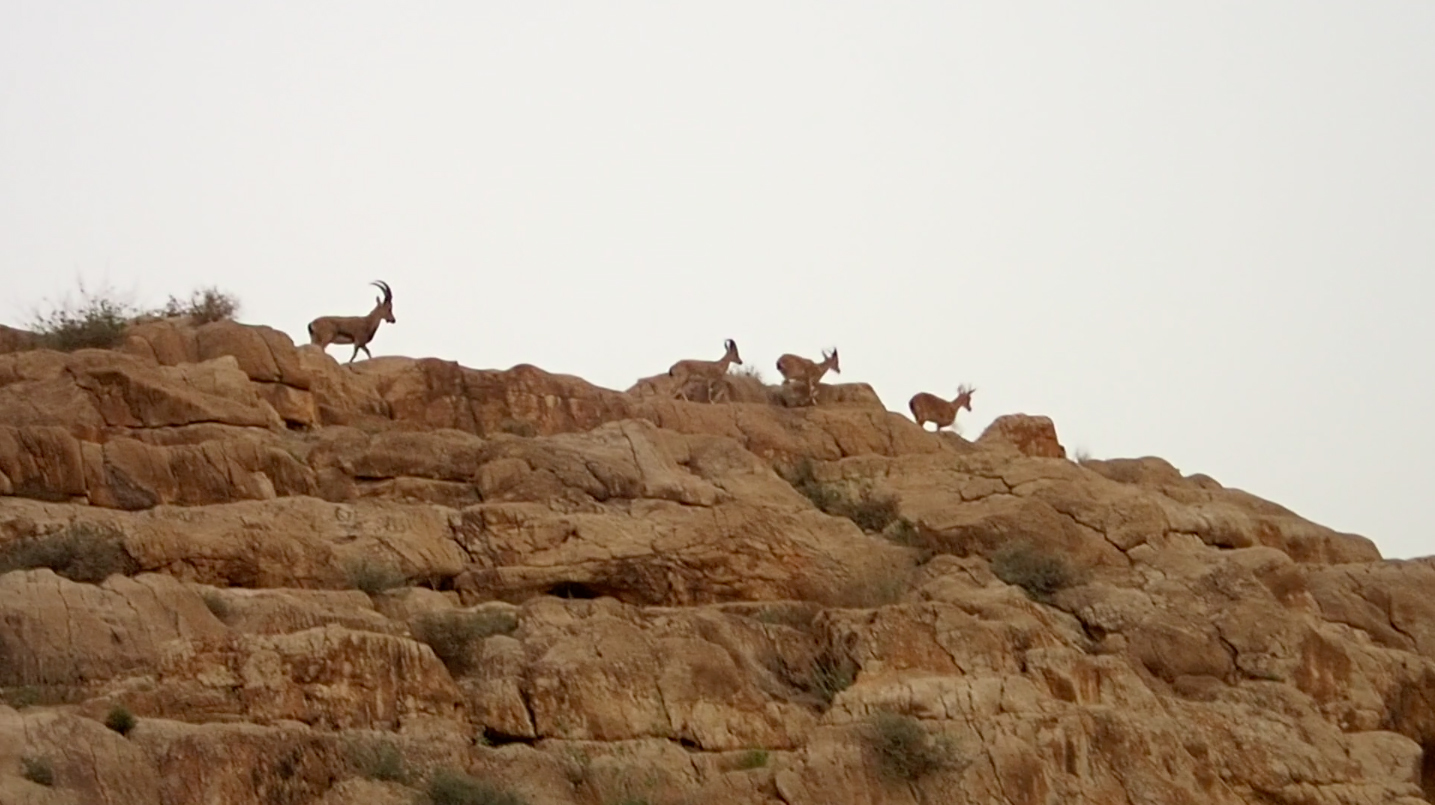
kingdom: Animalia
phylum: Chordata
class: Mammalia
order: Artiodactyla
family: Bovidae
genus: Capra
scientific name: Capra nubiana
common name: Nubian ibex
